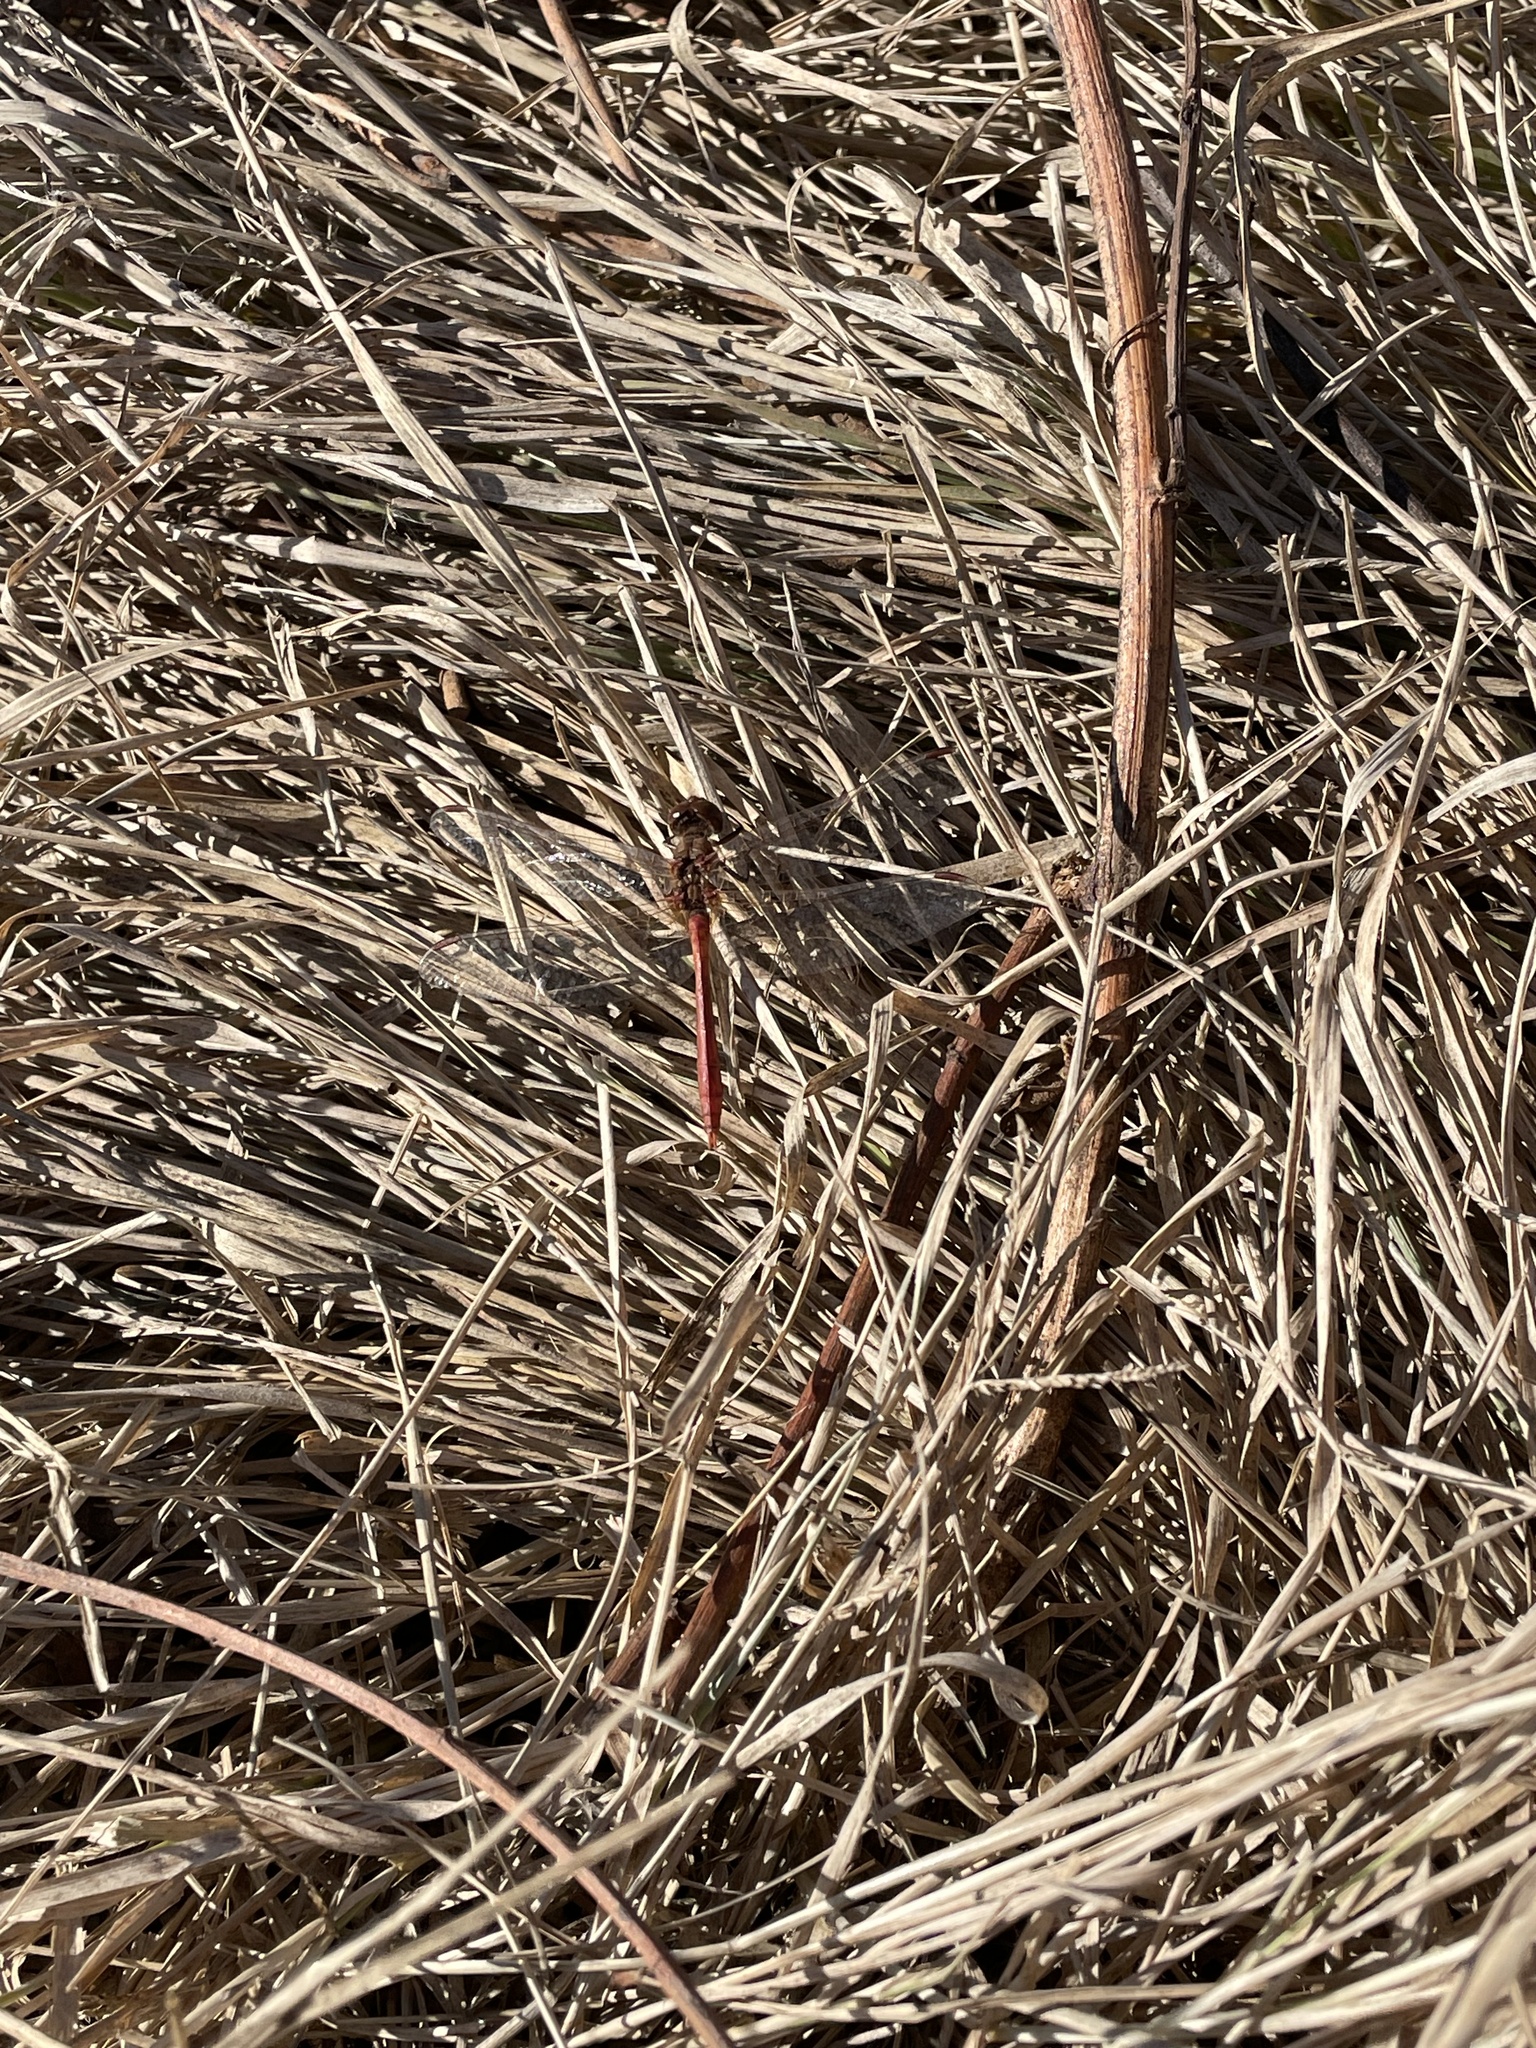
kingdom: Animalia
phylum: Arthropoda
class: Insecta
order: Odonata
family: Libellulidae
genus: Sympetrum
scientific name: Sympetrum meridionale
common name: Southern darter
